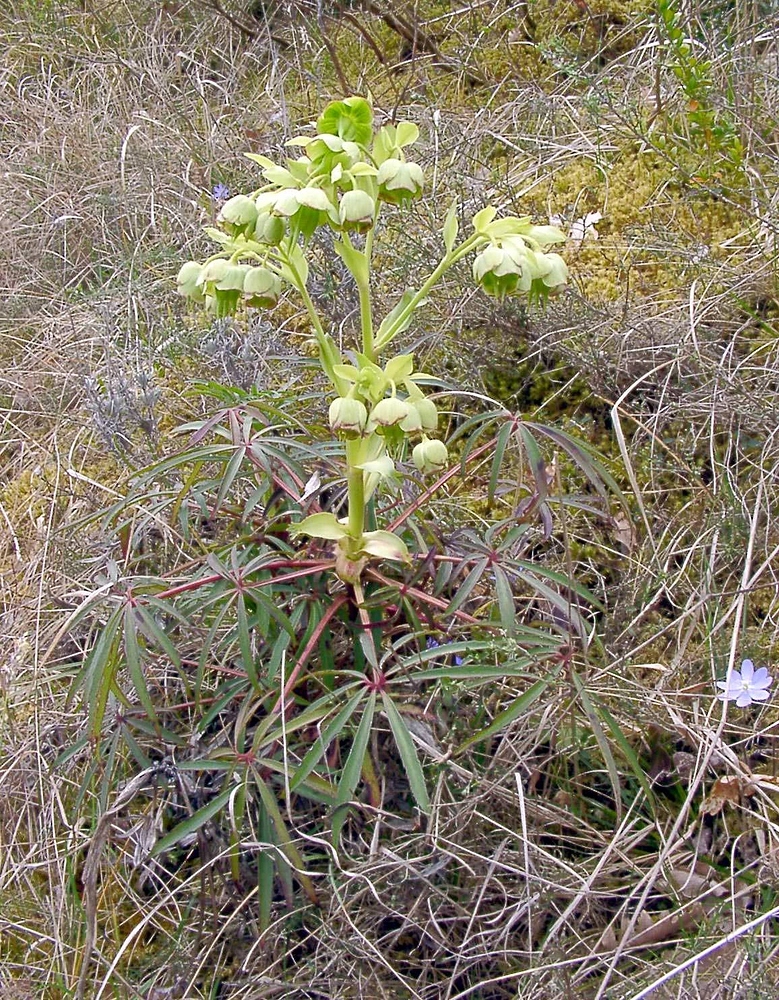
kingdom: Plantae
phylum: Tracheophyta
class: Magnoliopsida
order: Ranunculales
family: Ranunculaceae
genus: Helleborus
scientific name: Helleborus foetidus
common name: Stinking hellebore
